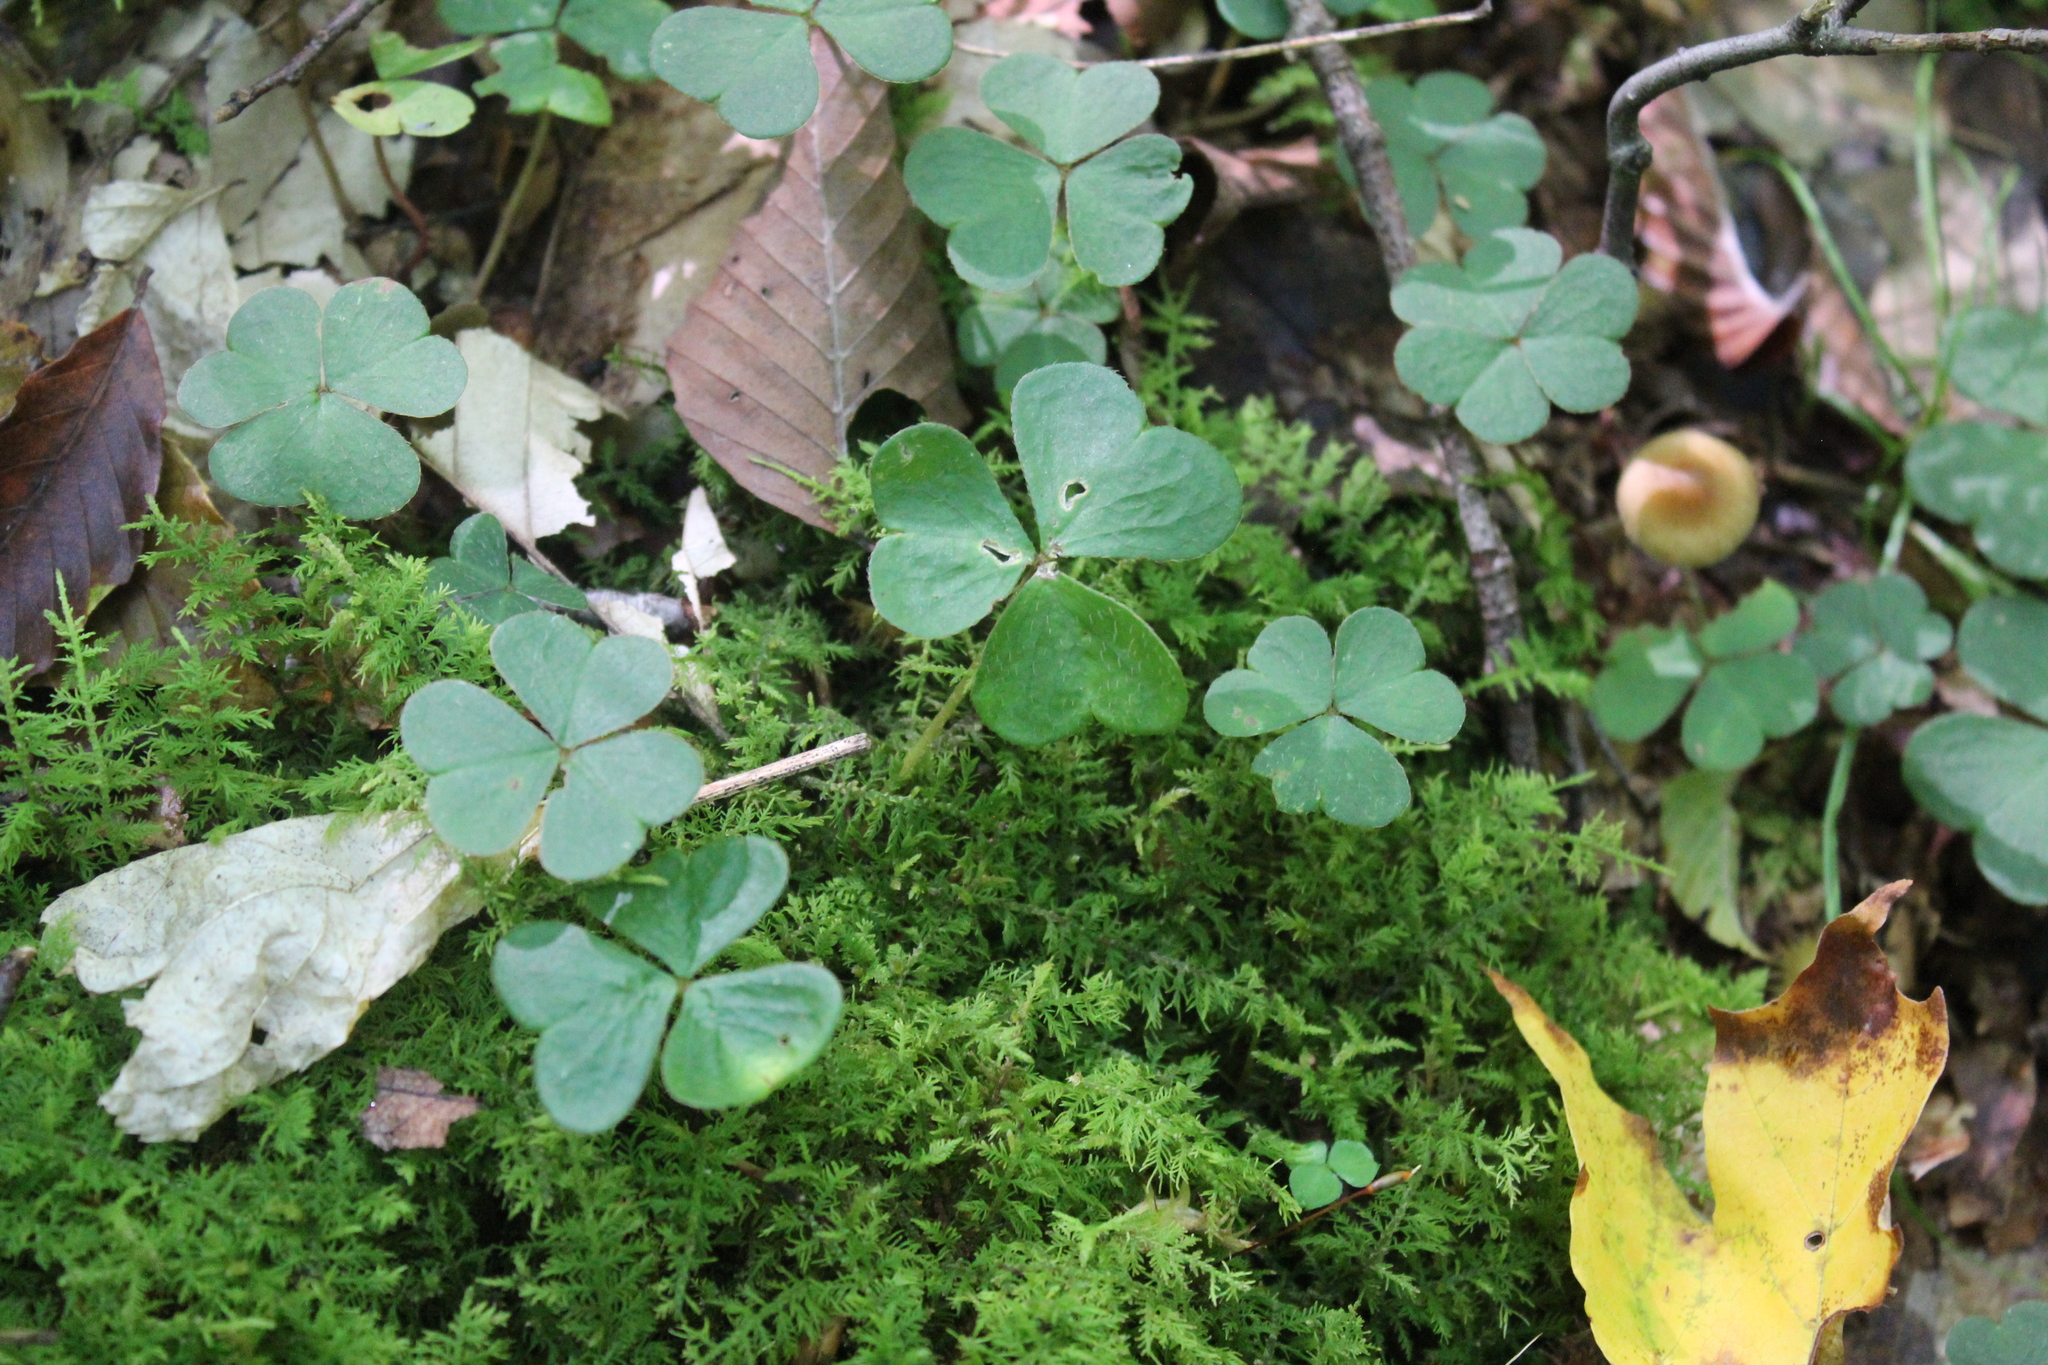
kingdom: Plantae
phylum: Tracheophyta
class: Magnoliopsida
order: Oxalidales
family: Oxalidaceae
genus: Oxalis
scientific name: Oxalis montana
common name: American wood-sorrel
